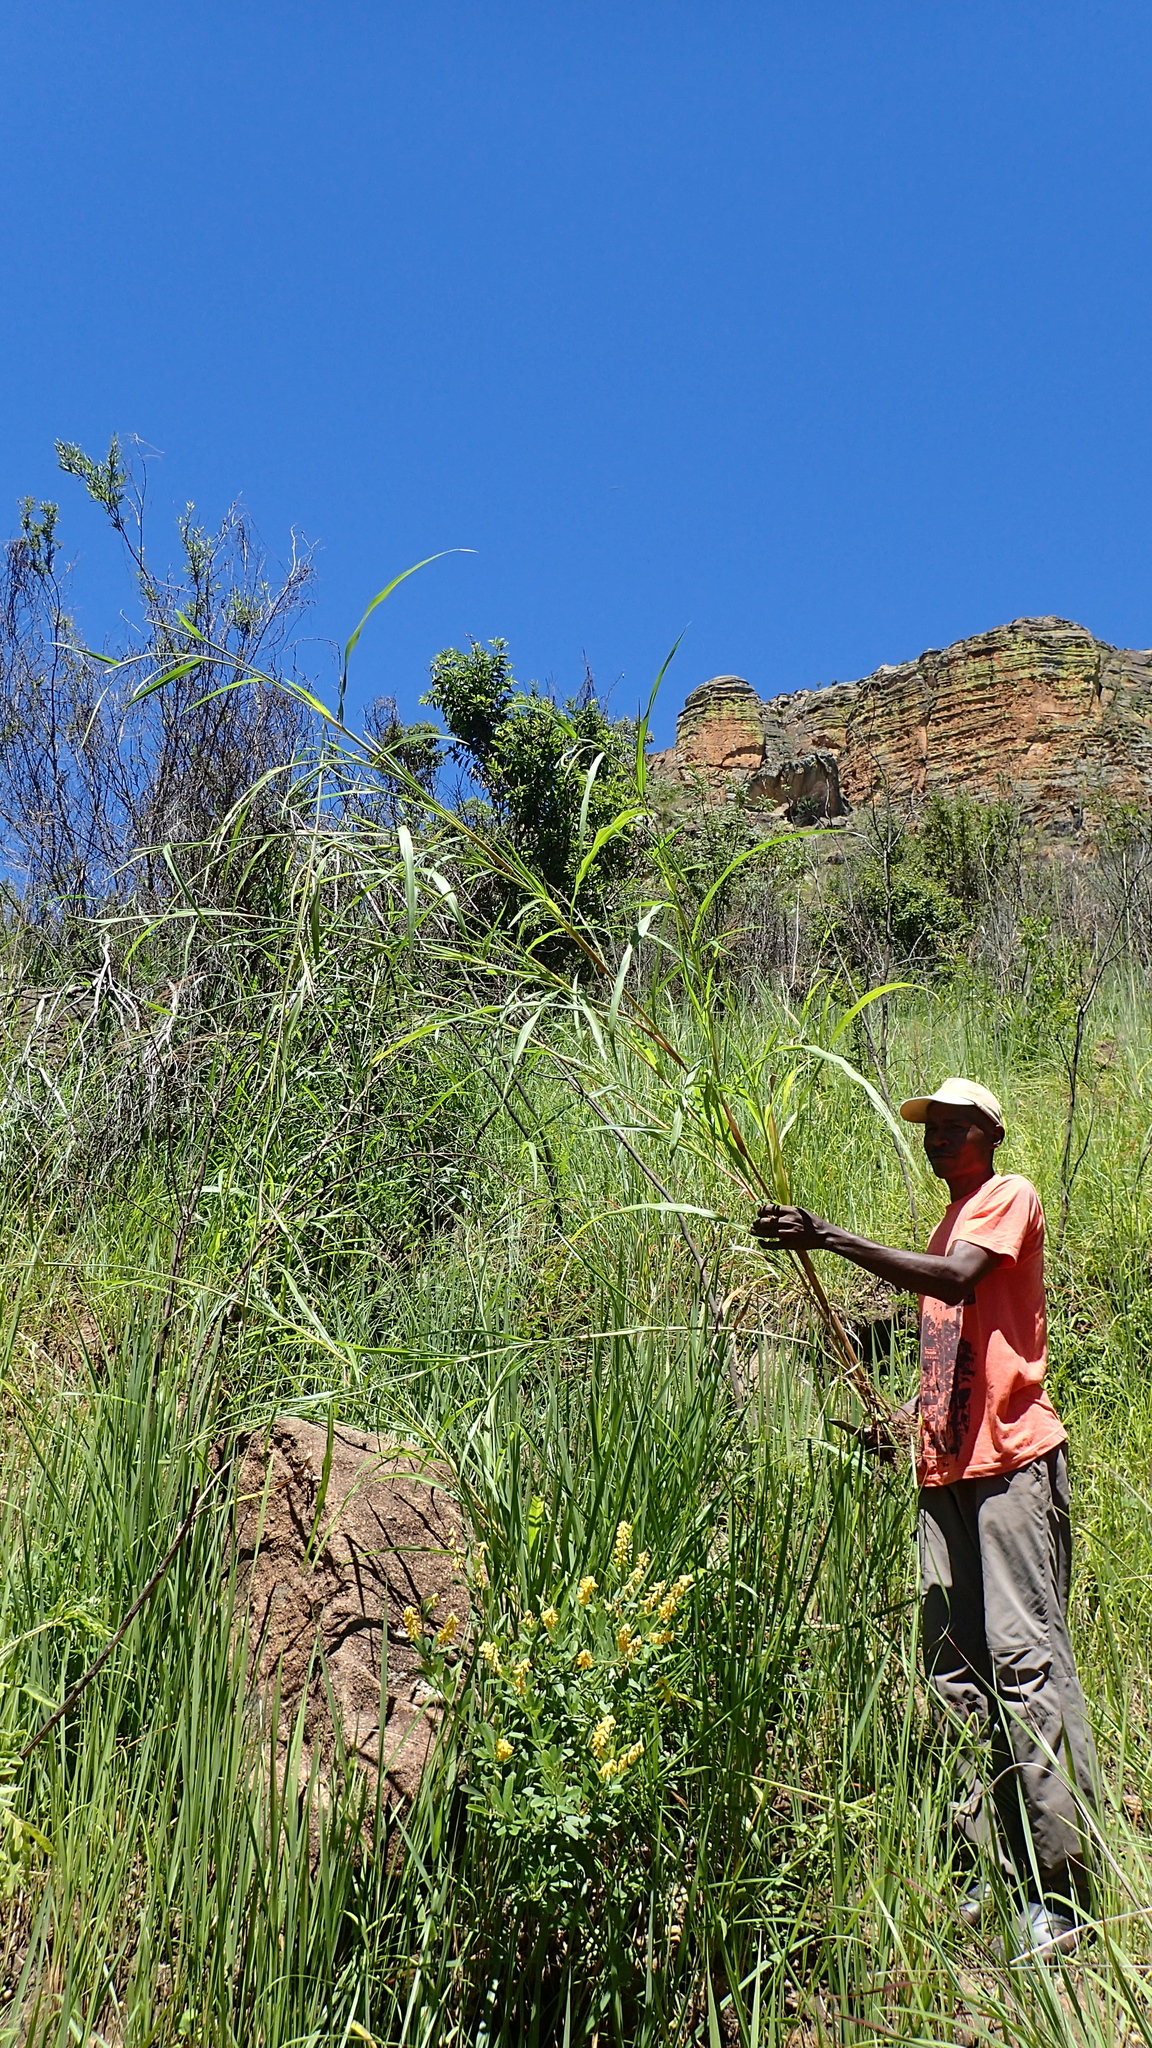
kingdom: Plantae
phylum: Tracheophyta
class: Liliopsida
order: Poales
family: Poaceae
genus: Rottboellia
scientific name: Rottboellia cochinchinensis
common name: Itchgrass
